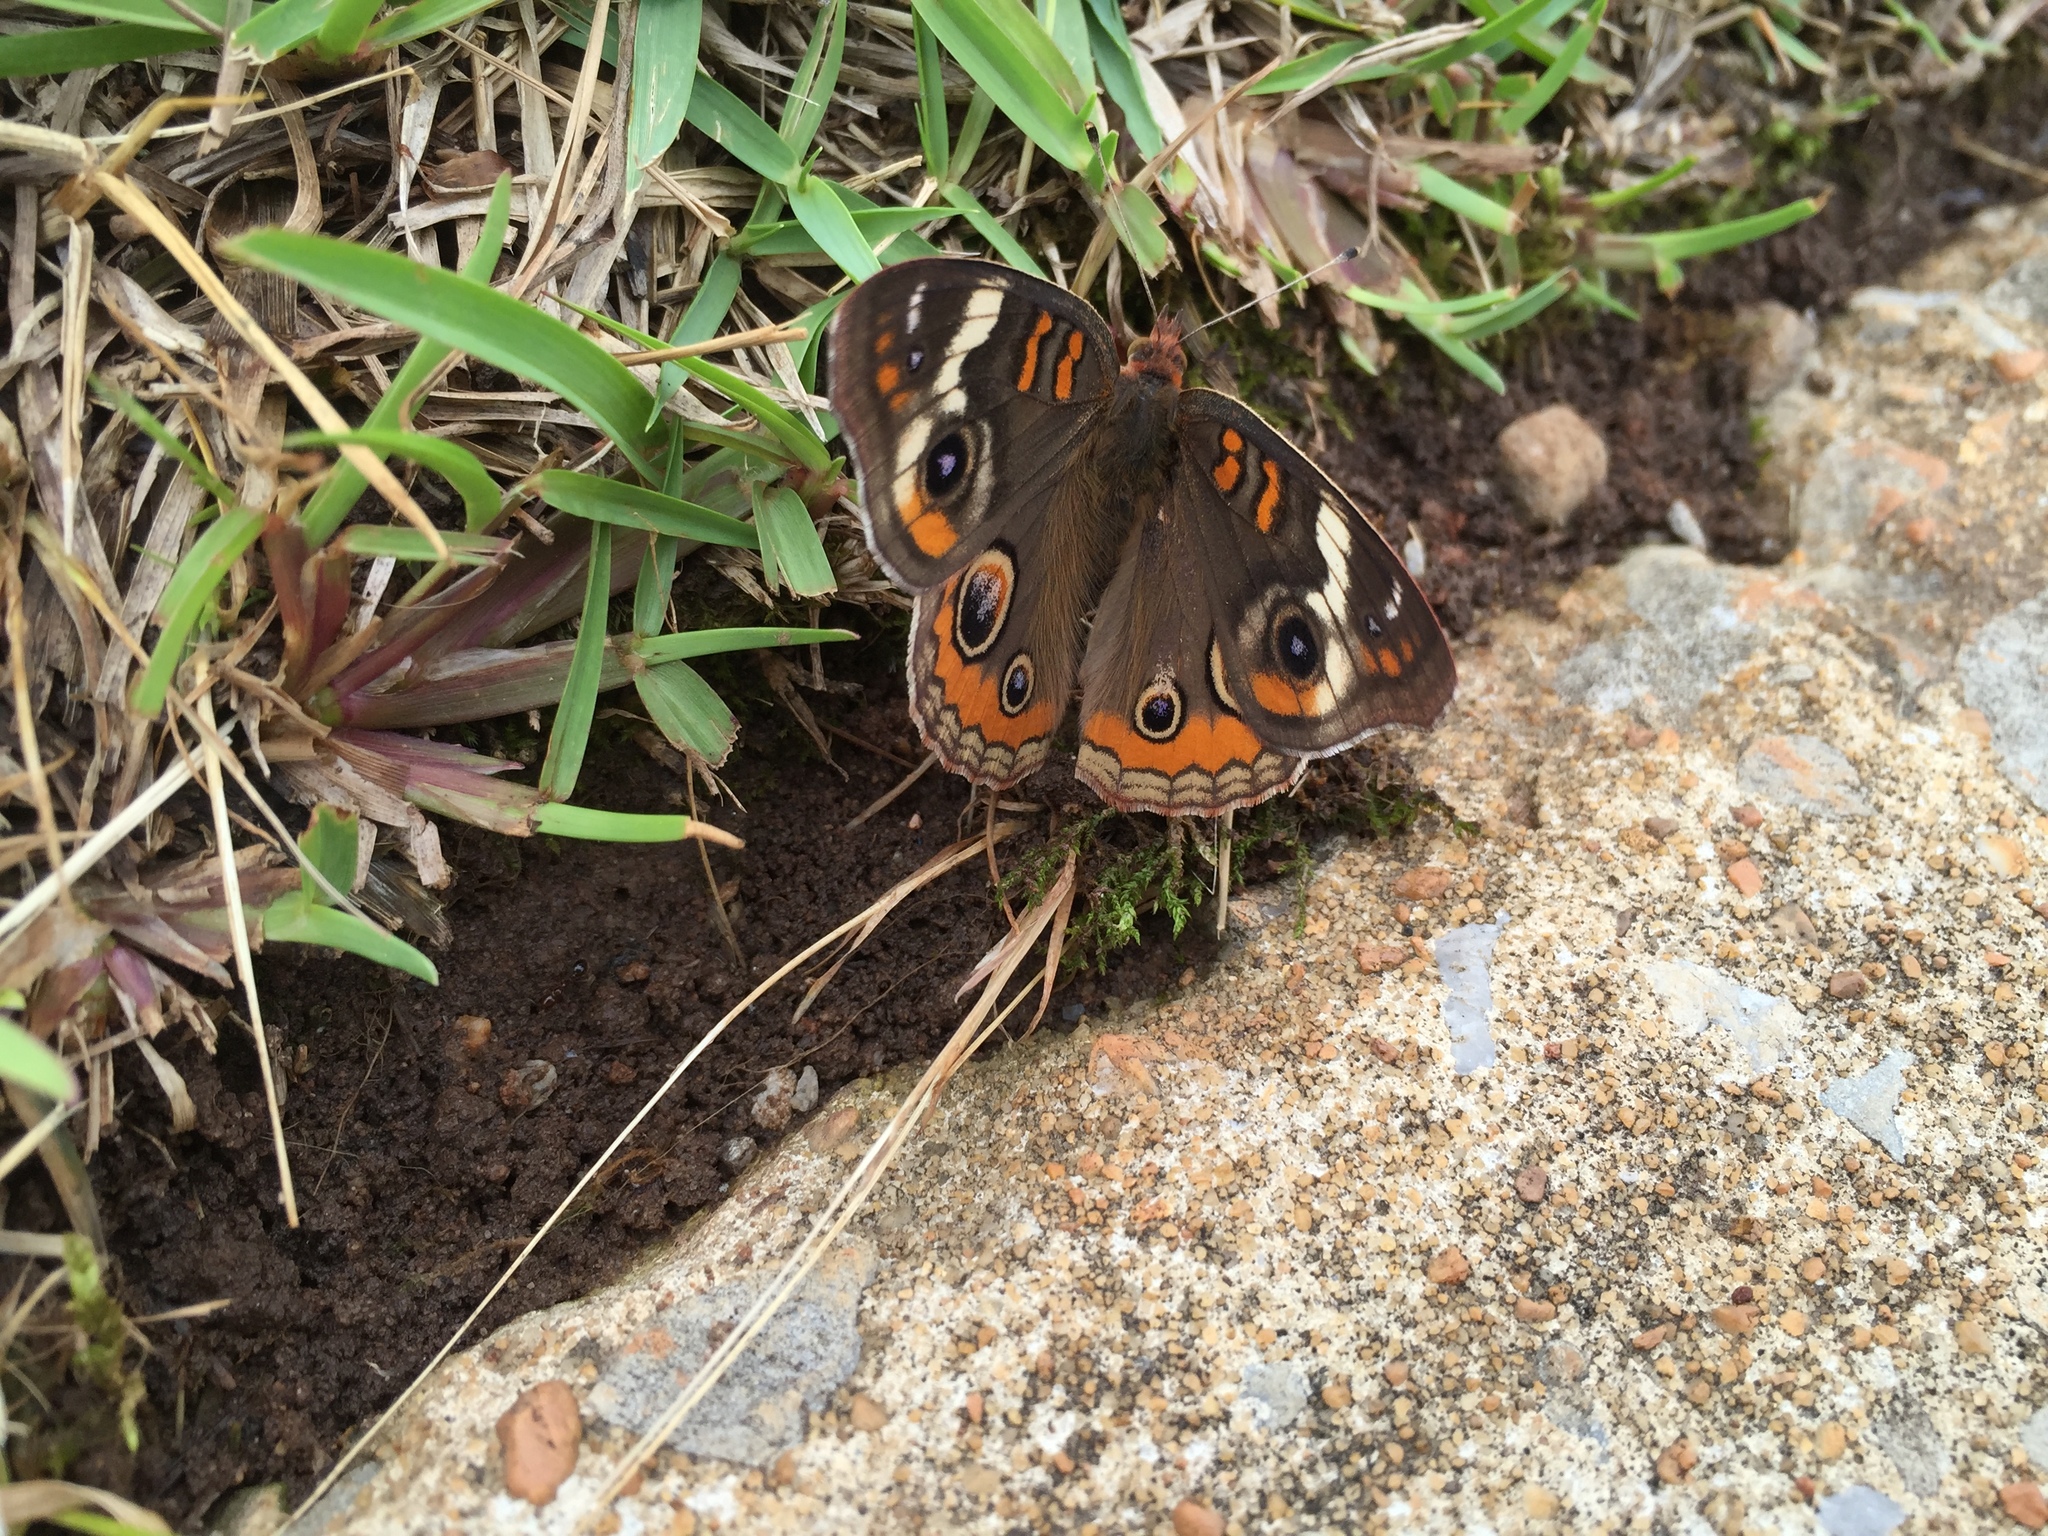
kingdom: Animalia
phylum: Arthropoda
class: Insecta
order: Lepidoptera
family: Nymphalidae
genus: Junonia
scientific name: Junonia coenia
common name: Common buckeye
